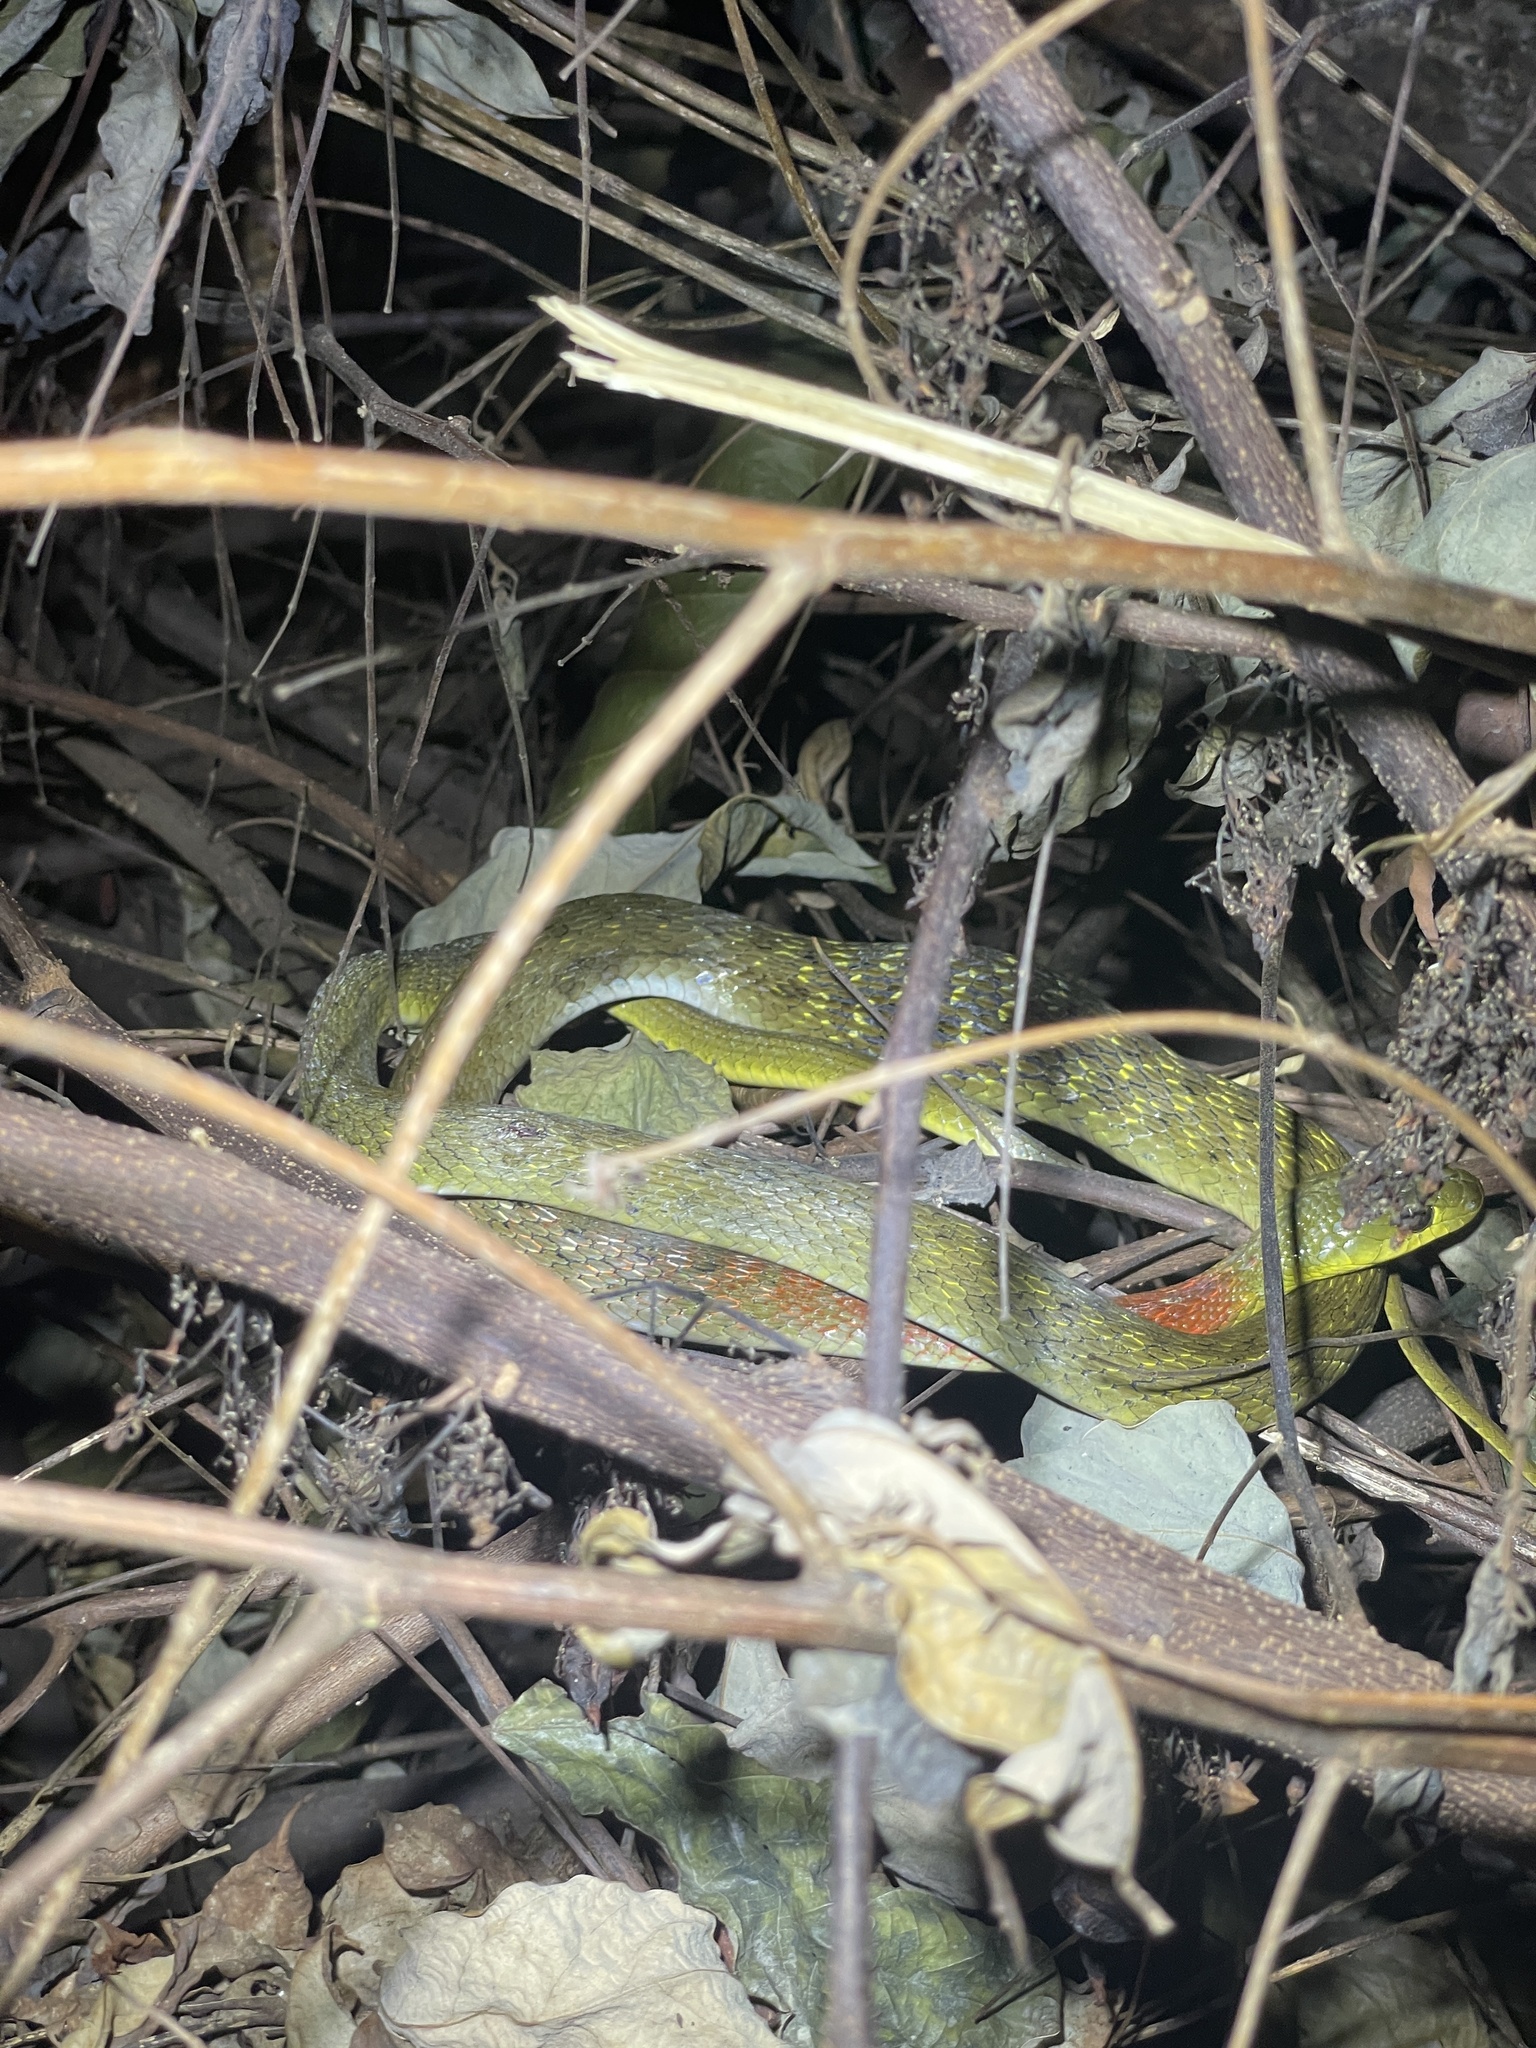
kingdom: Animalia
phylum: Chordata
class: Squamata
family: Colubridae
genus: Rhabdophis
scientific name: Rhabdophis helleri
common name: Heller’s red-necked keelback
